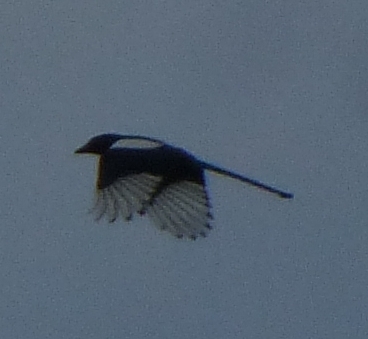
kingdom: Animalia
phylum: Chordata
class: Aves
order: Passeriformes
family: Corvidae
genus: Pica
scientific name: Pica pica
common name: Eurasian magpie
